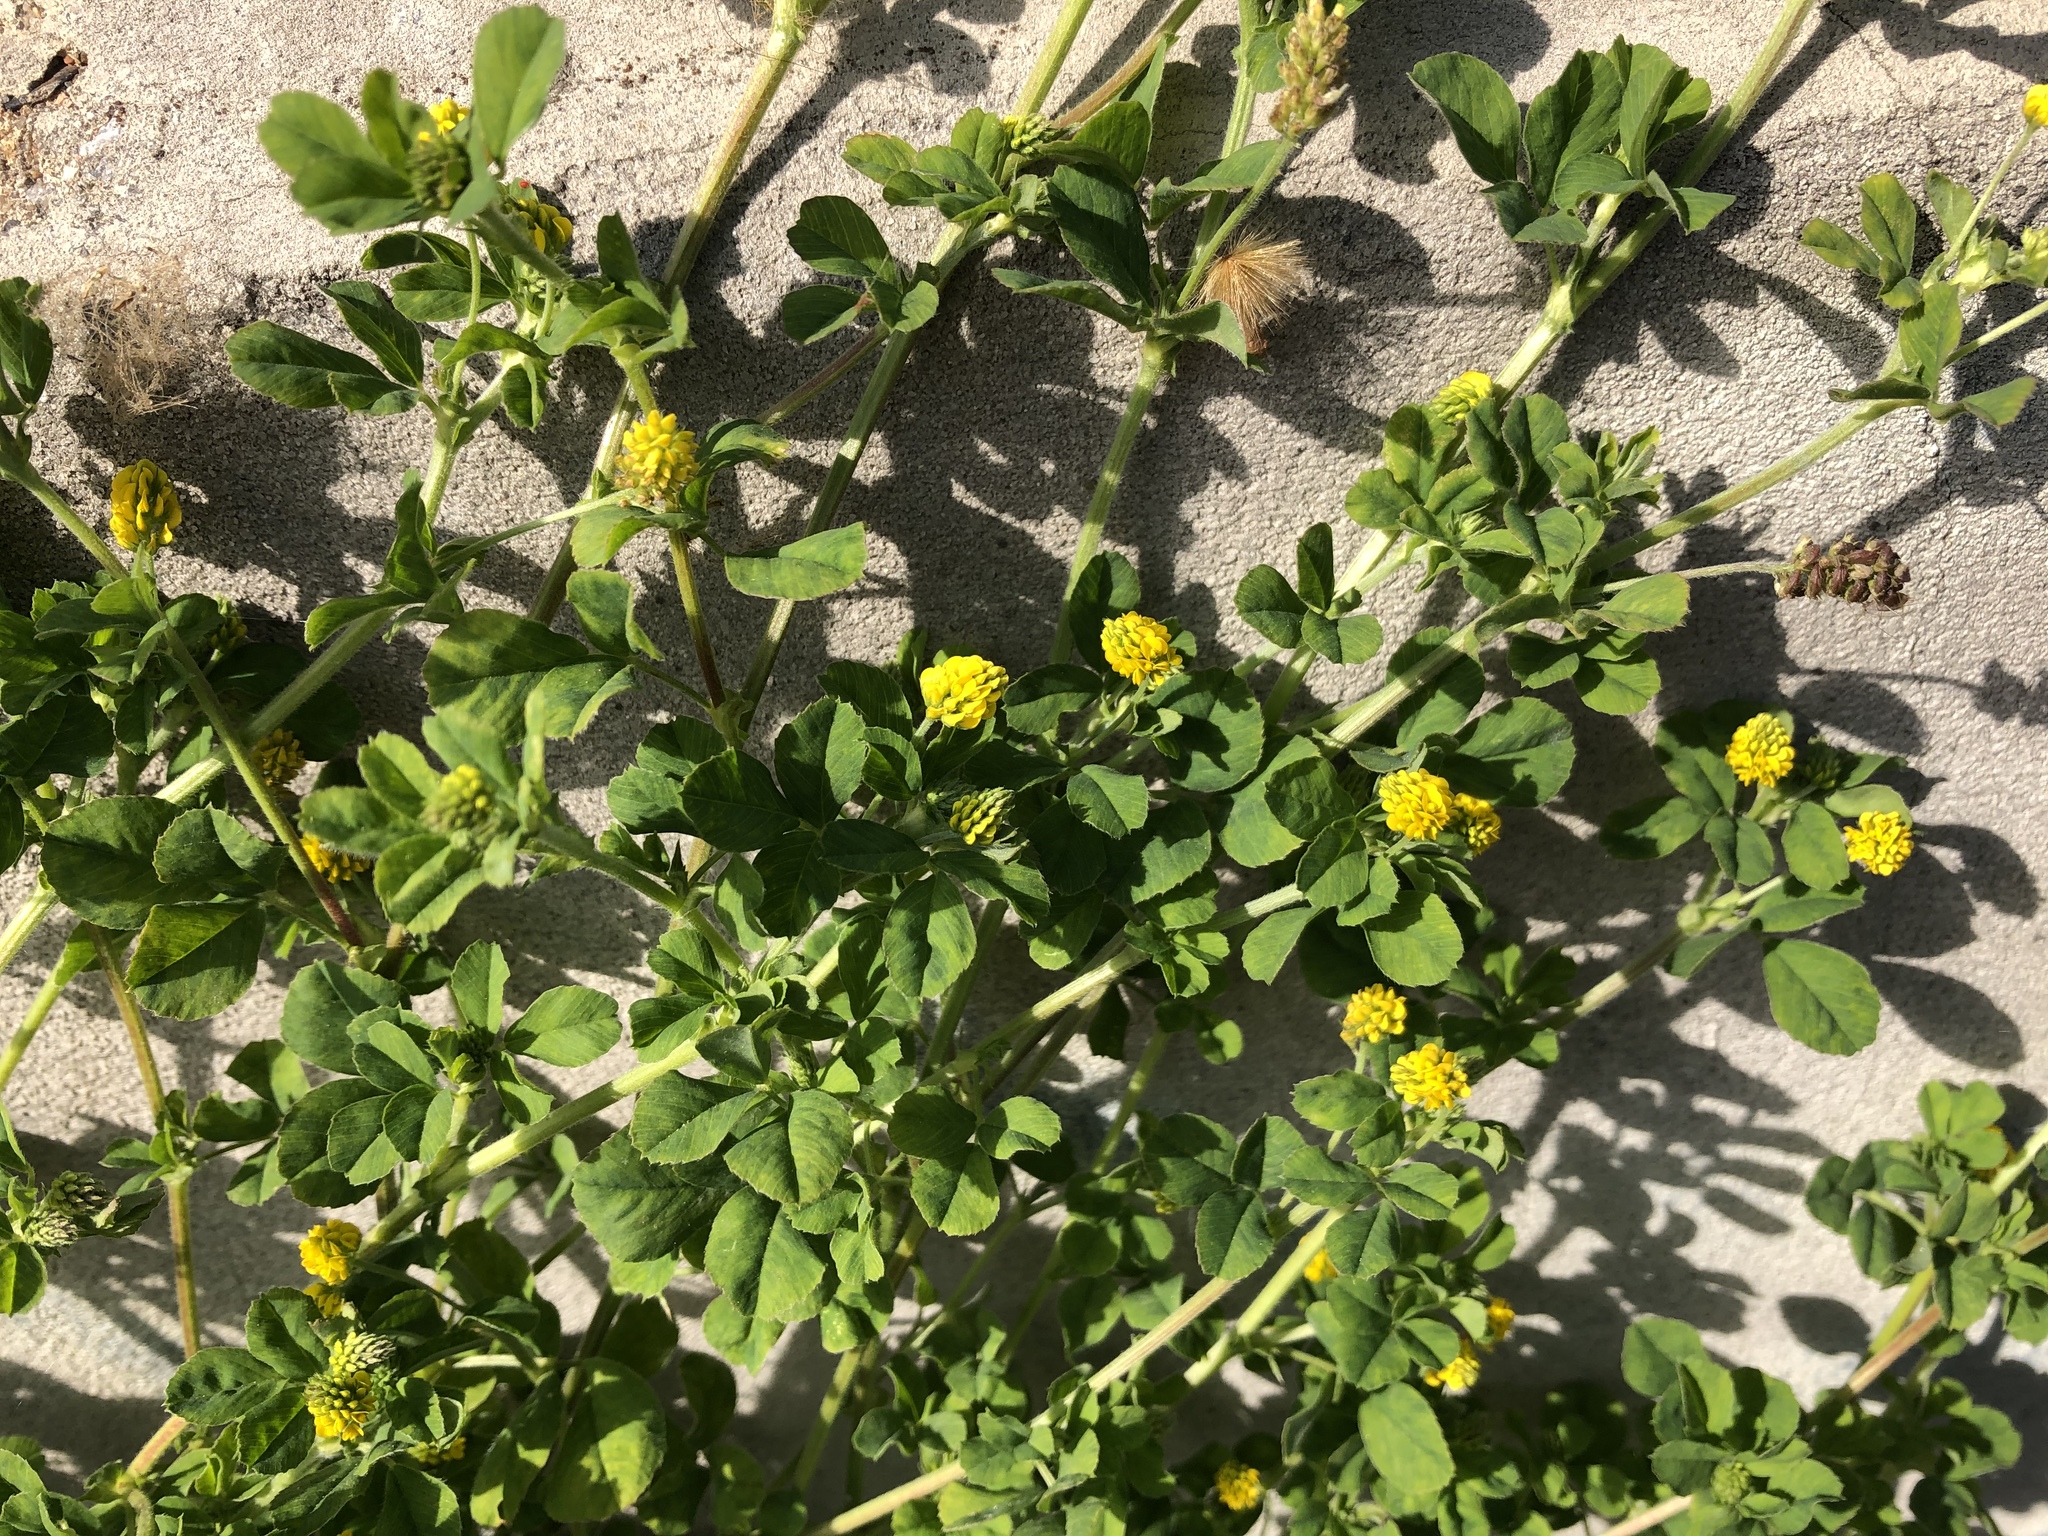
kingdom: Plantae
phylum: Tracheophyta
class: Magnoliopsida
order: Fabales
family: Fabaceae
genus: Medicago
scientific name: Medicago lupulina
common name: Black medick
